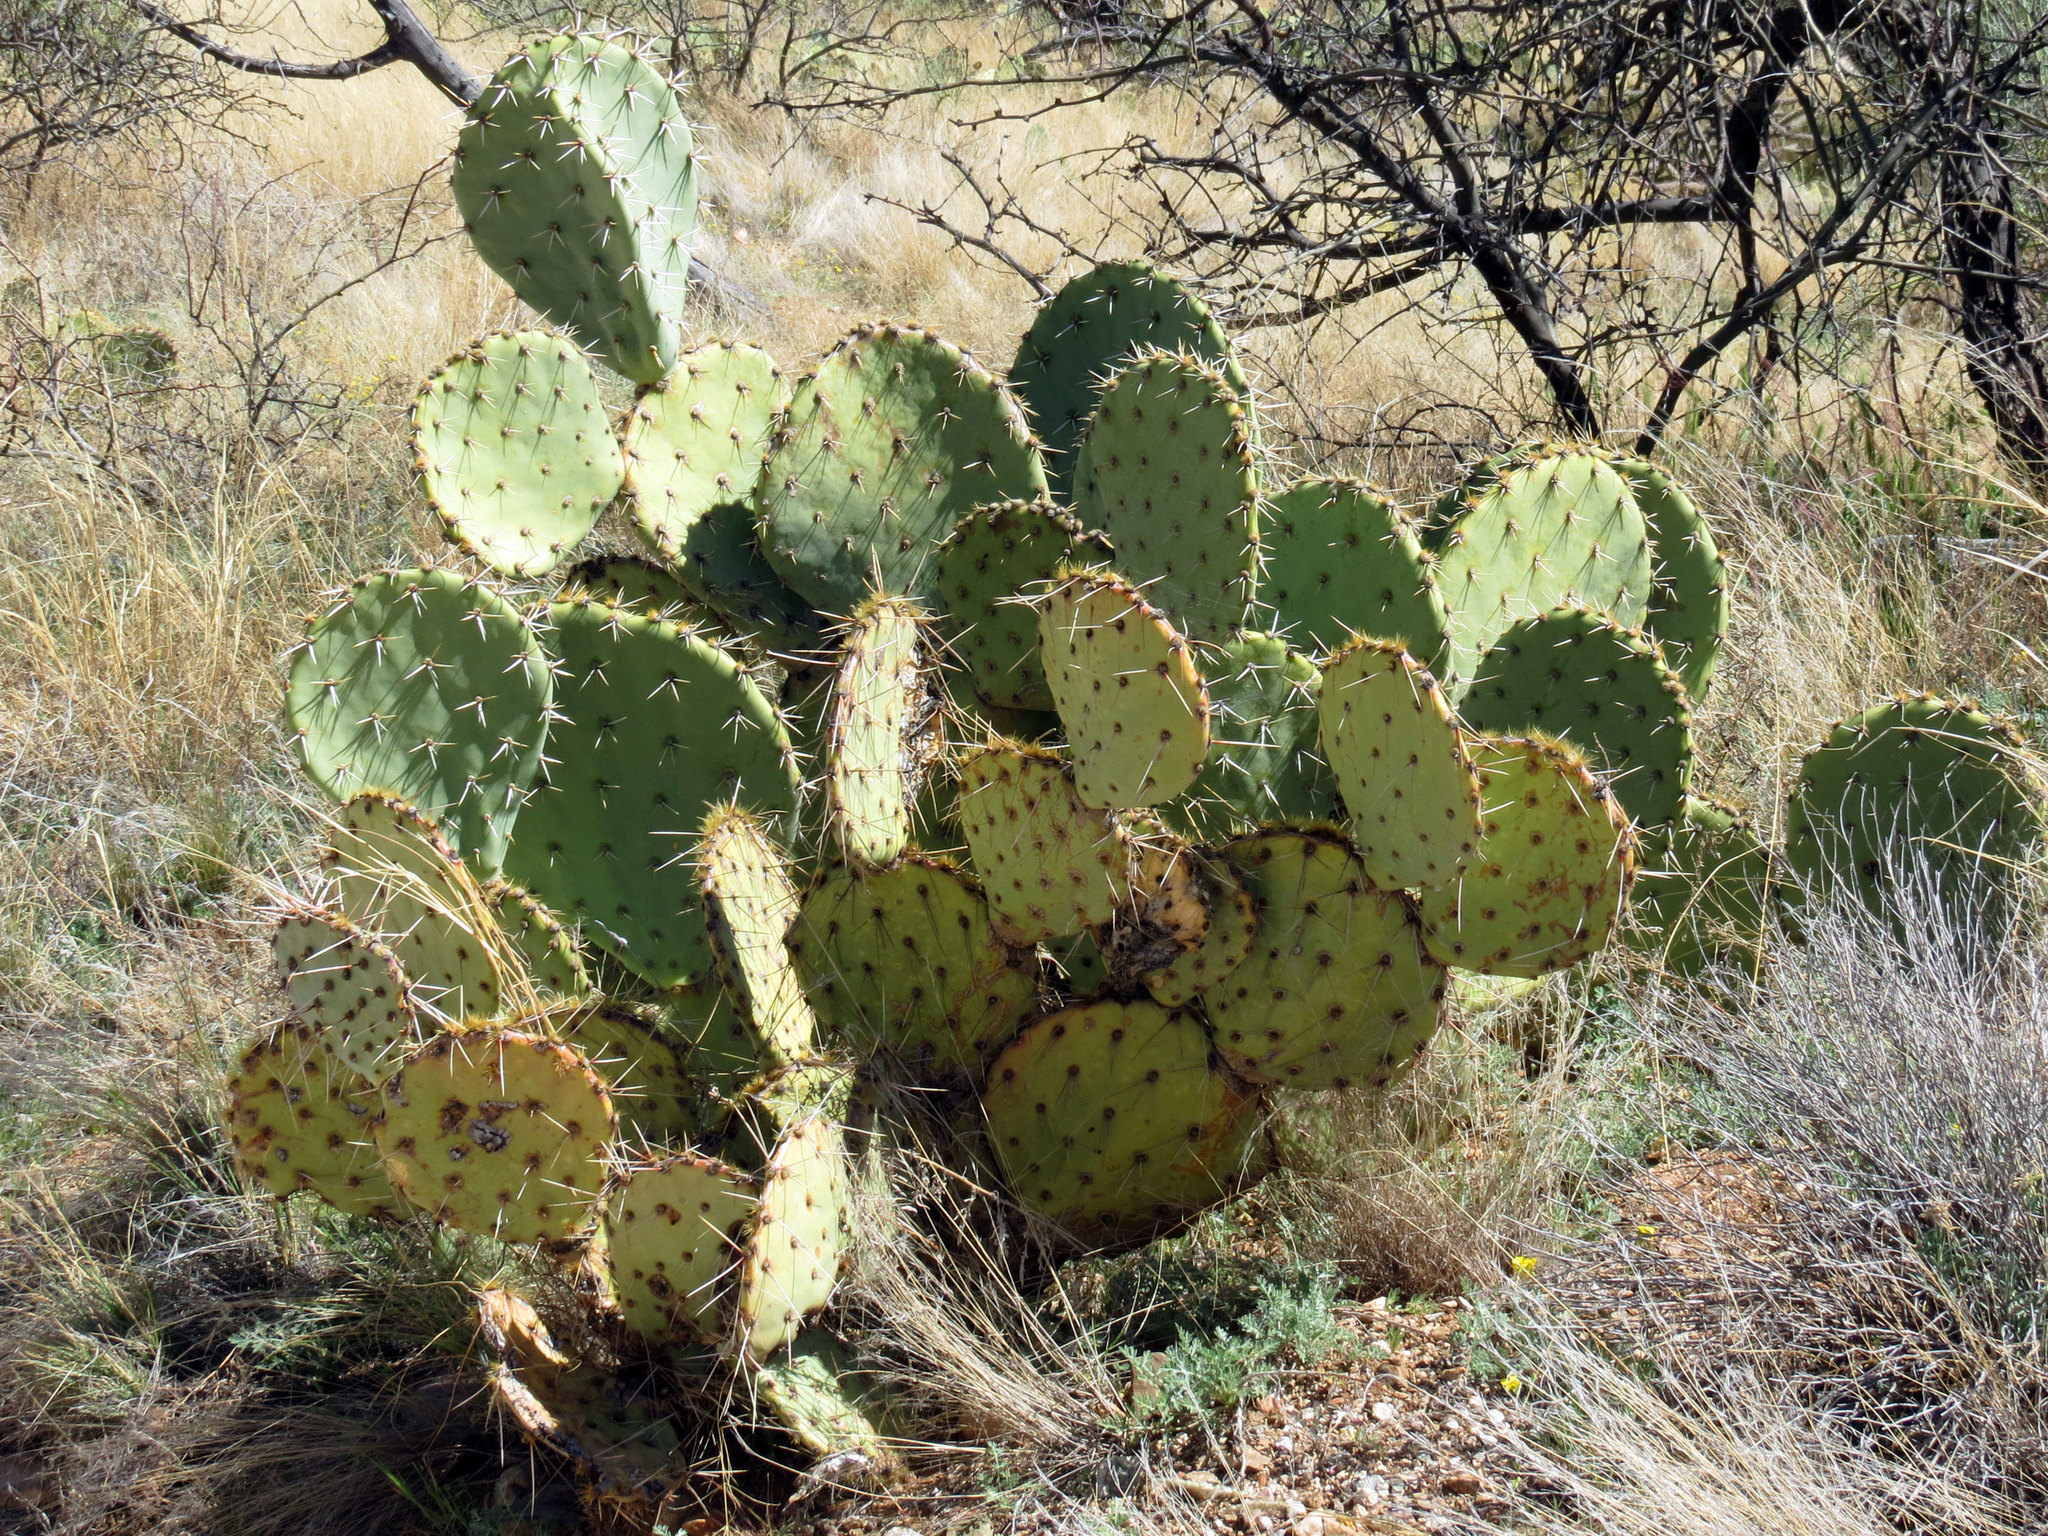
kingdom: Plantae
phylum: Tracheophyta
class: Magnoliopsida
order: Caryophyllales
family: Cactaceae
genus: Opuntia
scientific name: Opuntia engelmannii
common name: Cactus-apple
